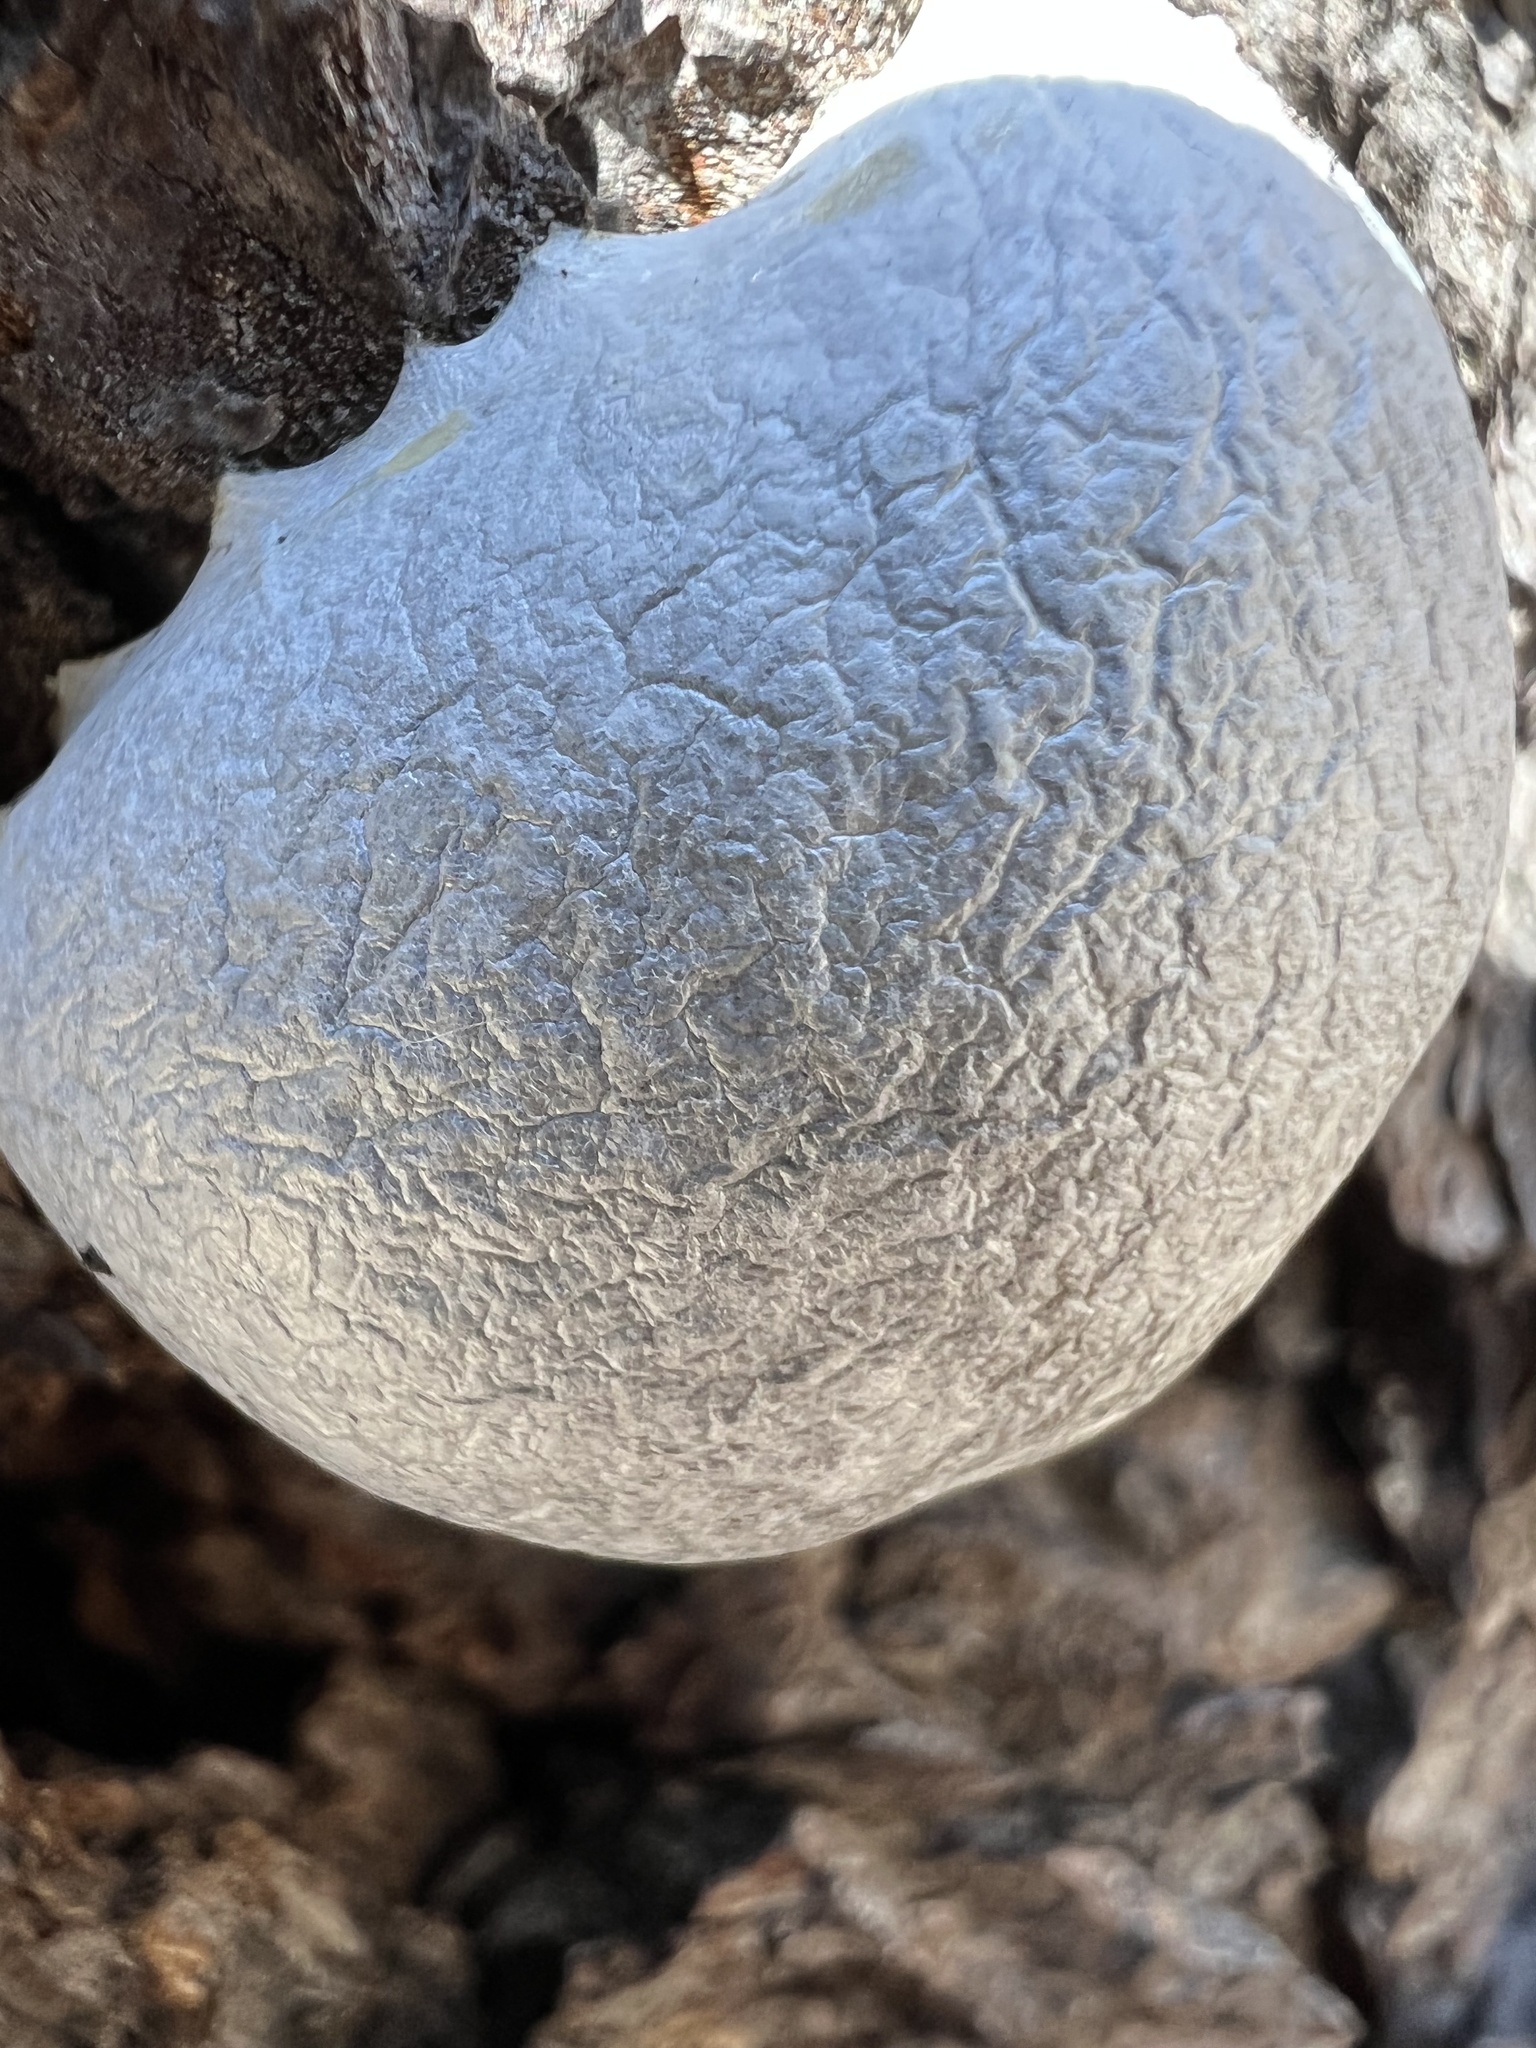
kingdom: Protozoa
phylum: Mycetozoa
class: Myxomycetes
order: Cribrariales
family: Tubiferaceae
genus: Reticularia
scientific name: Reticularia lycoperdon
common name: False puffball
